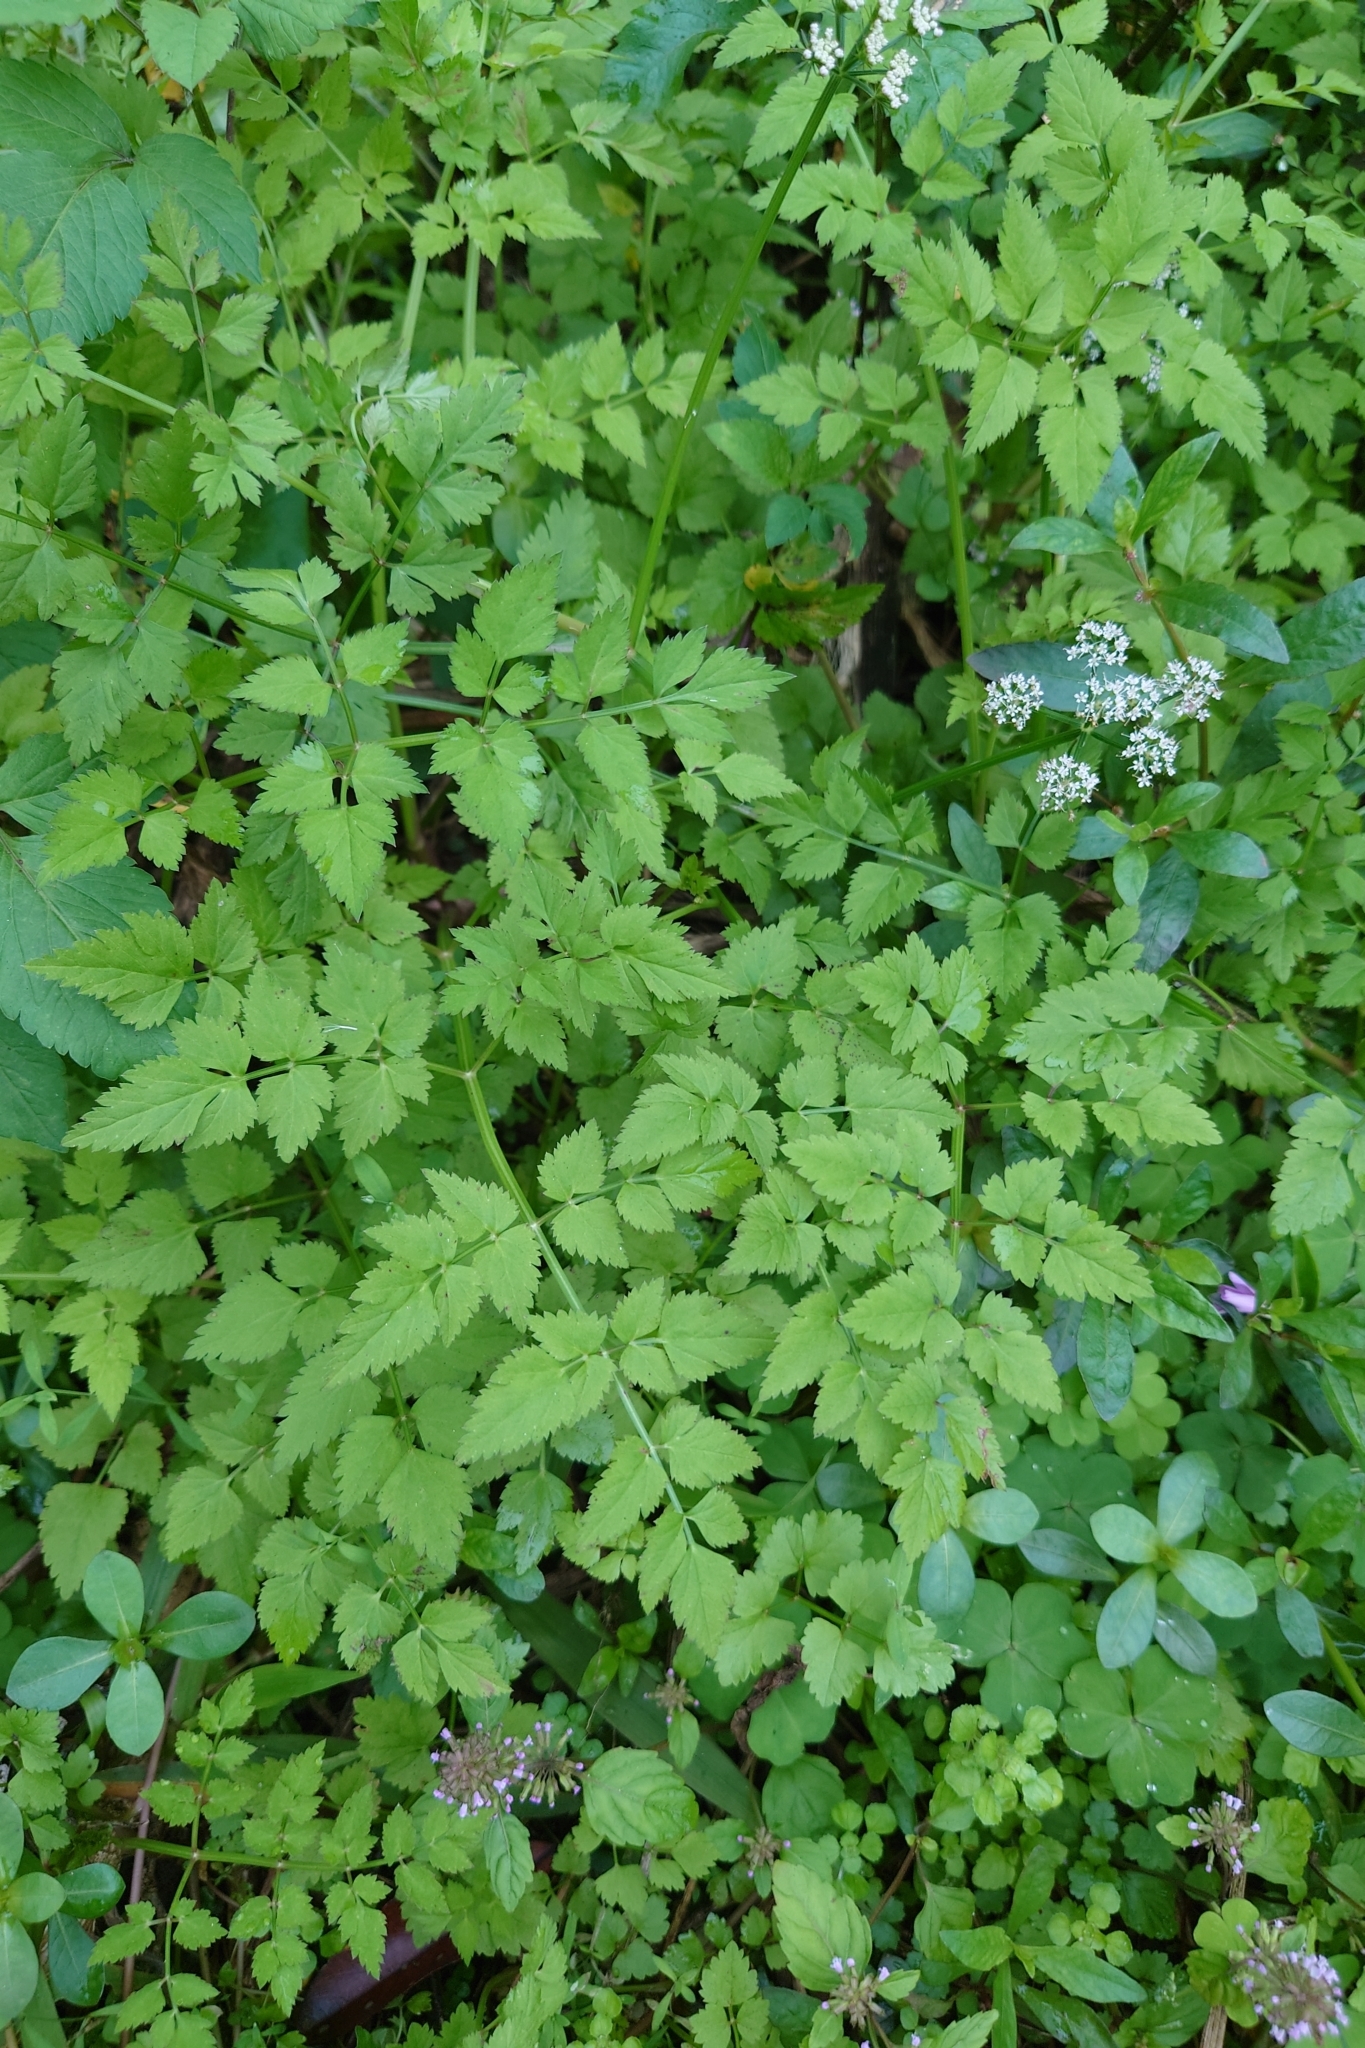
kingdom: Plantae
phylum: Tracheophyta
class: Magnoliopsida
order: Apiales
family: Apiaceae
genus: Oenanthe
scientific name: Oenanthe javanica
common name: Java water-dropwort
